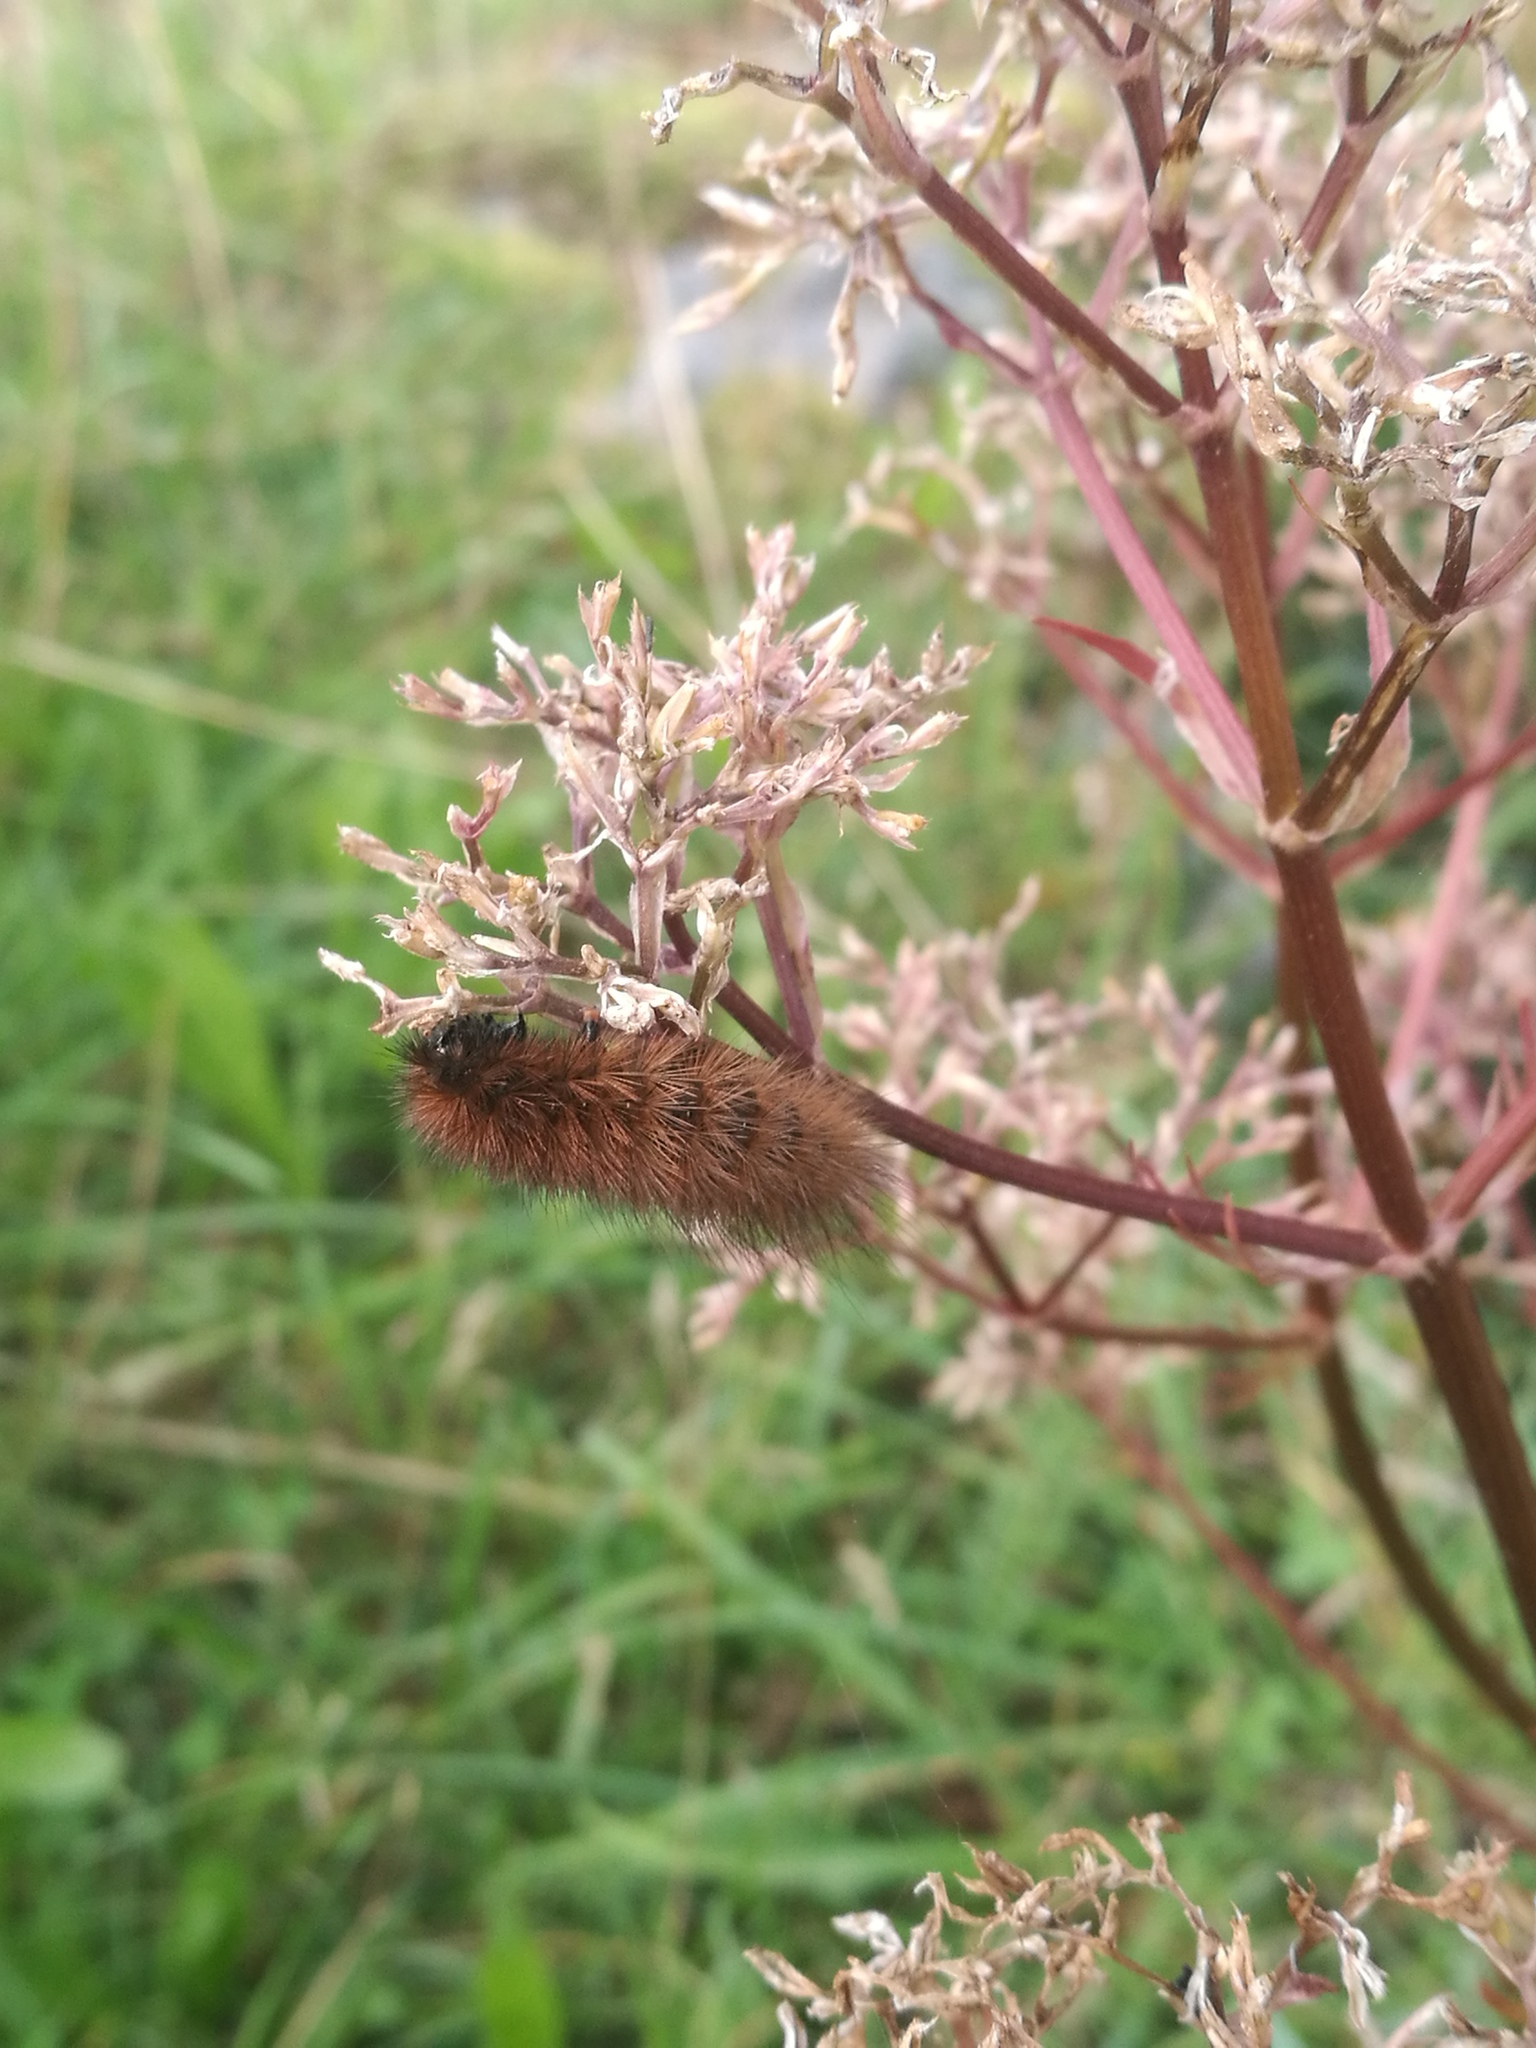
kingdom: Animalia
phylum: Arthropoda
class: Insecta
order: Lepidoptera
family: Erebidae
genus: Phragmatobia
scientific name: Phragmatobia fuliginosa
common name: Ruby tiger
